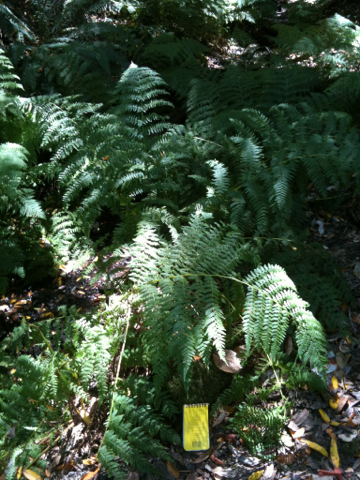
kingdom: Plantae
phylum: Tracheophyta
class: Polypodiopsida
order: Polypodiales
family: Athyriaceae
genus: Athyrium
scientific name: Athyrium filix-femina
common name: Lady fern
